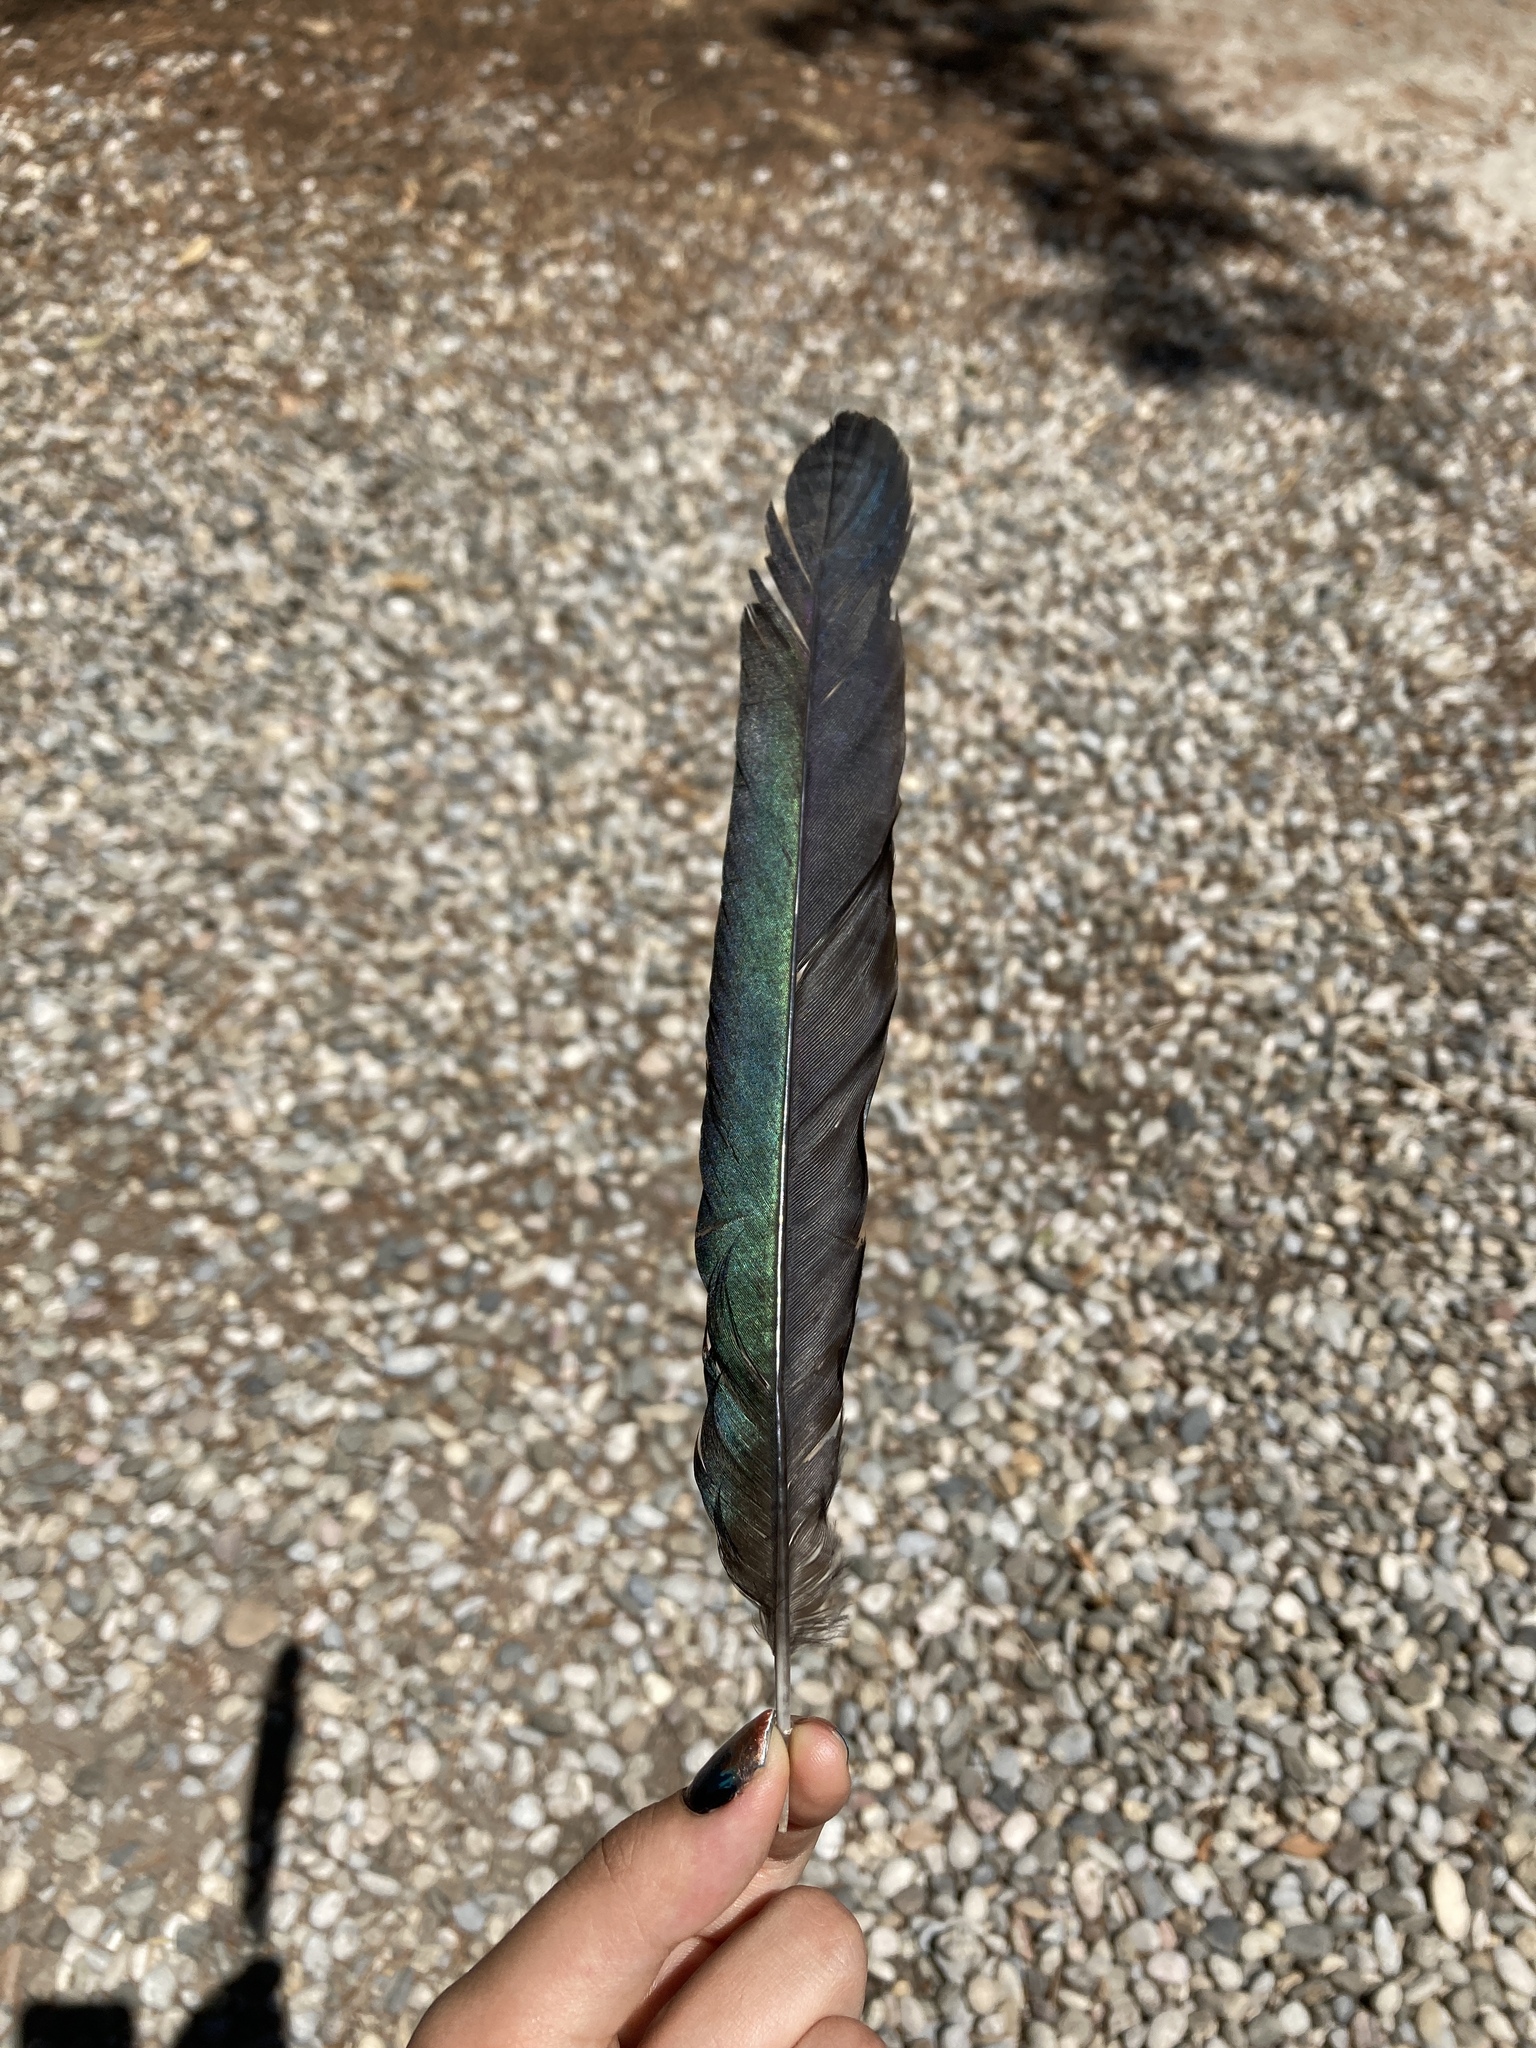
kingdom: Animalia
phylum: Chordata
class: Aves
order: Passeriformes
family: Corvidae
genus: Pica
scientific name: Pica pica
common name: Eurasian magpie
